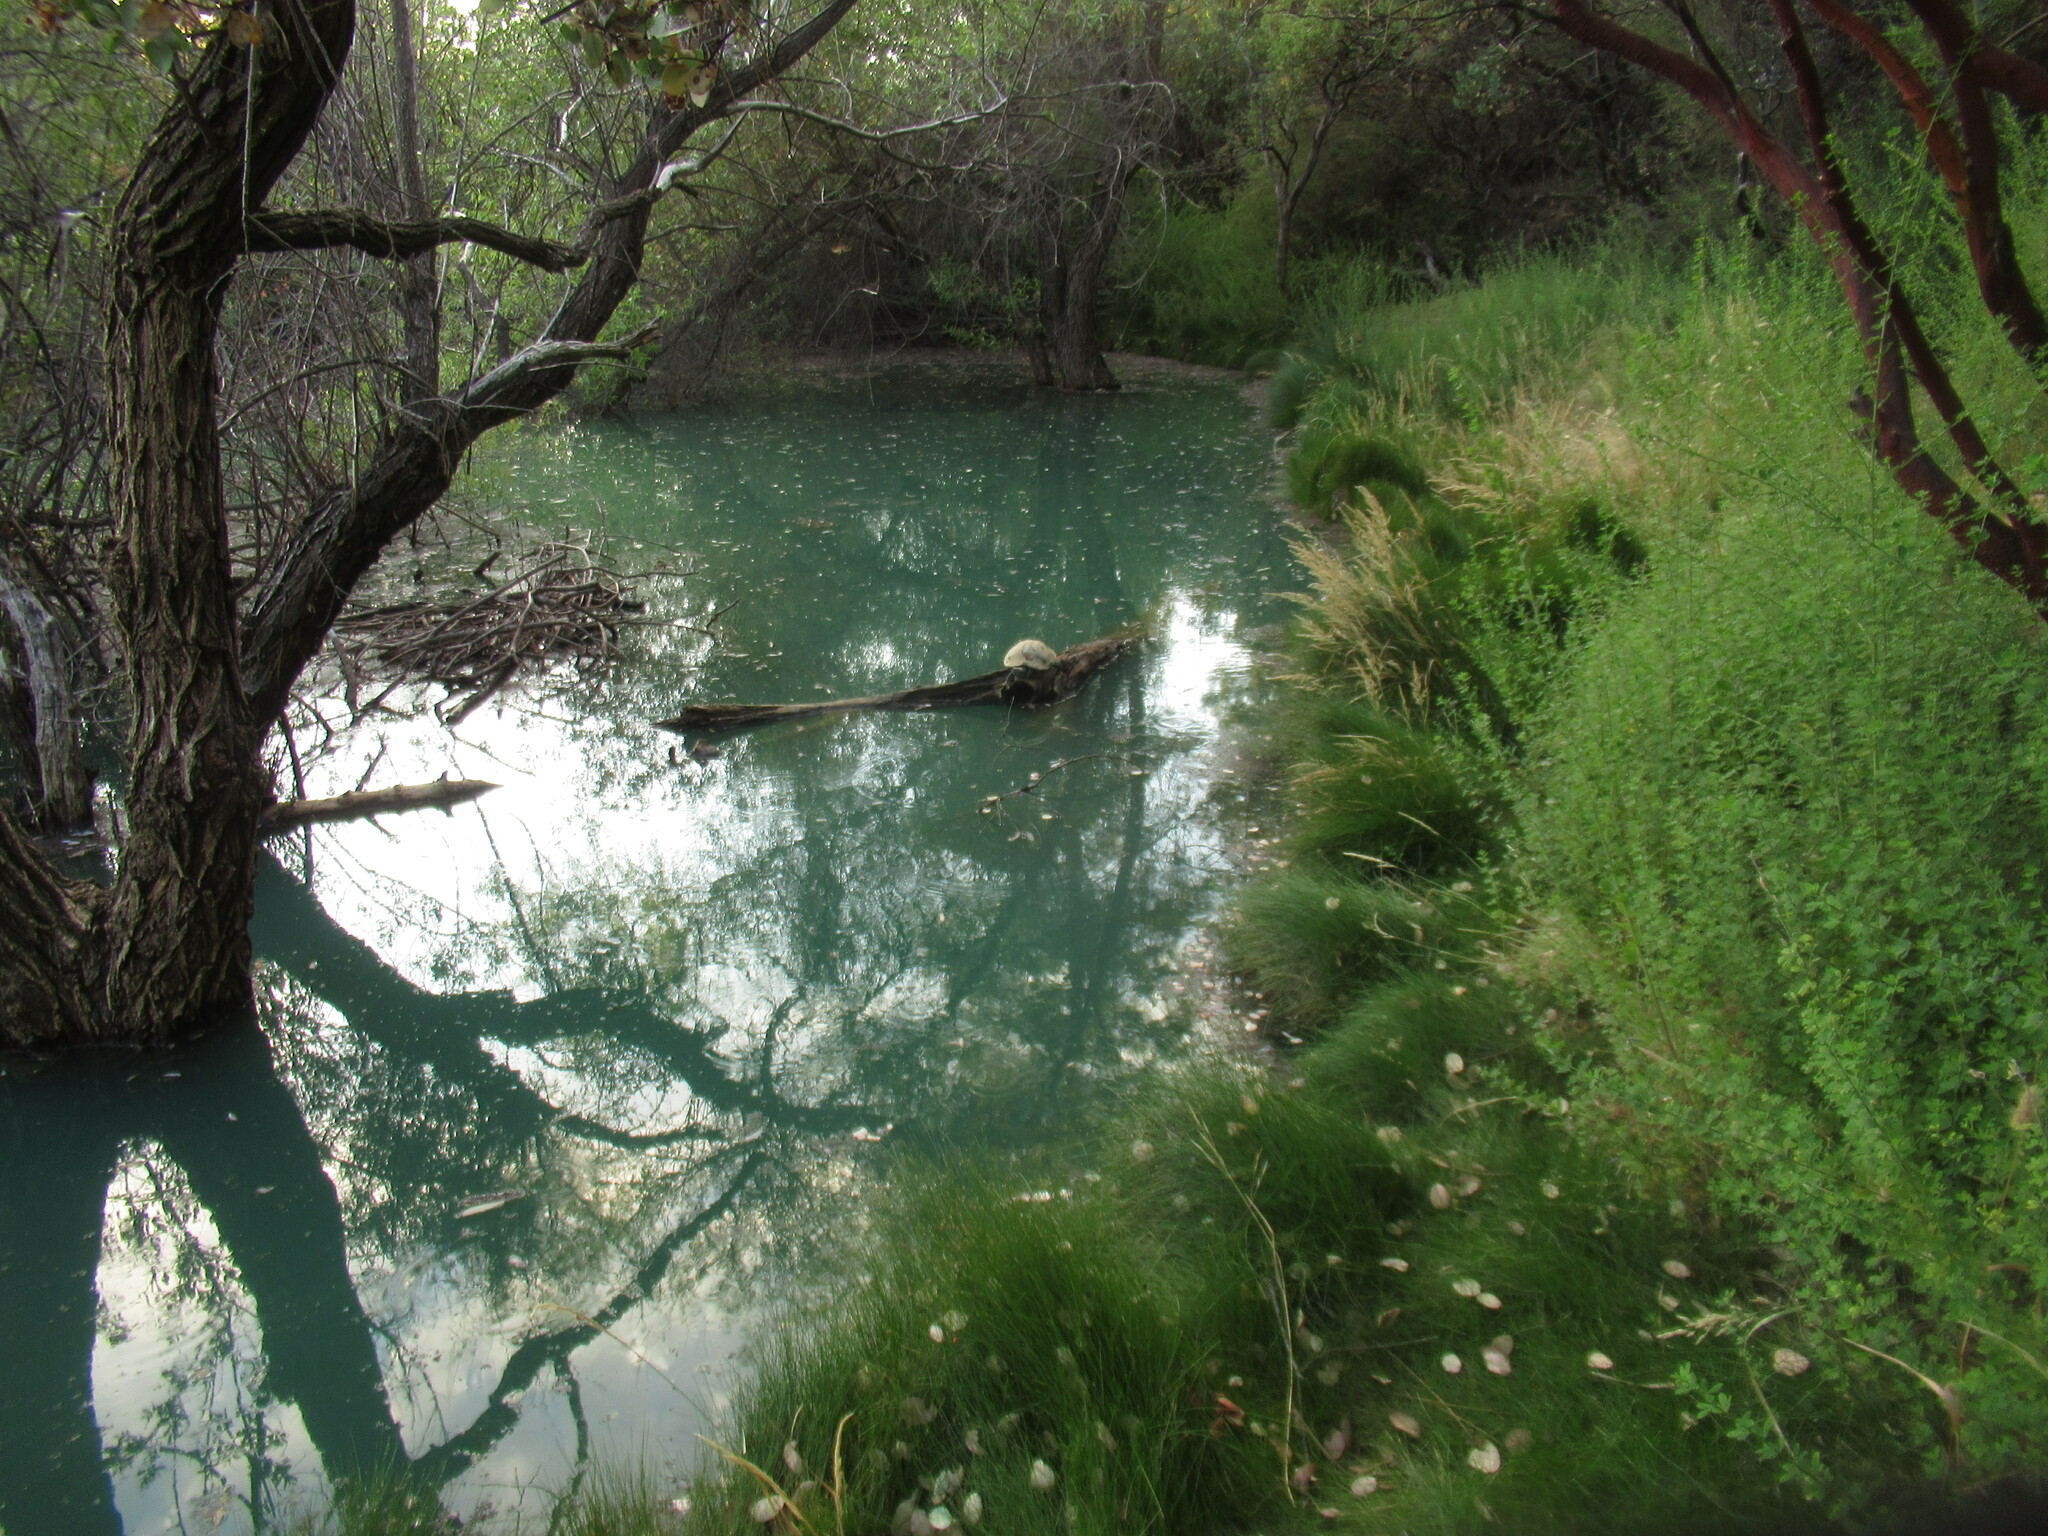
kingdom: Animalia
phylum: Chordata
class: Testudines
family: Emydidae
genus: Trachemys
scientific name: Trachemys scripta
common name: Slider
